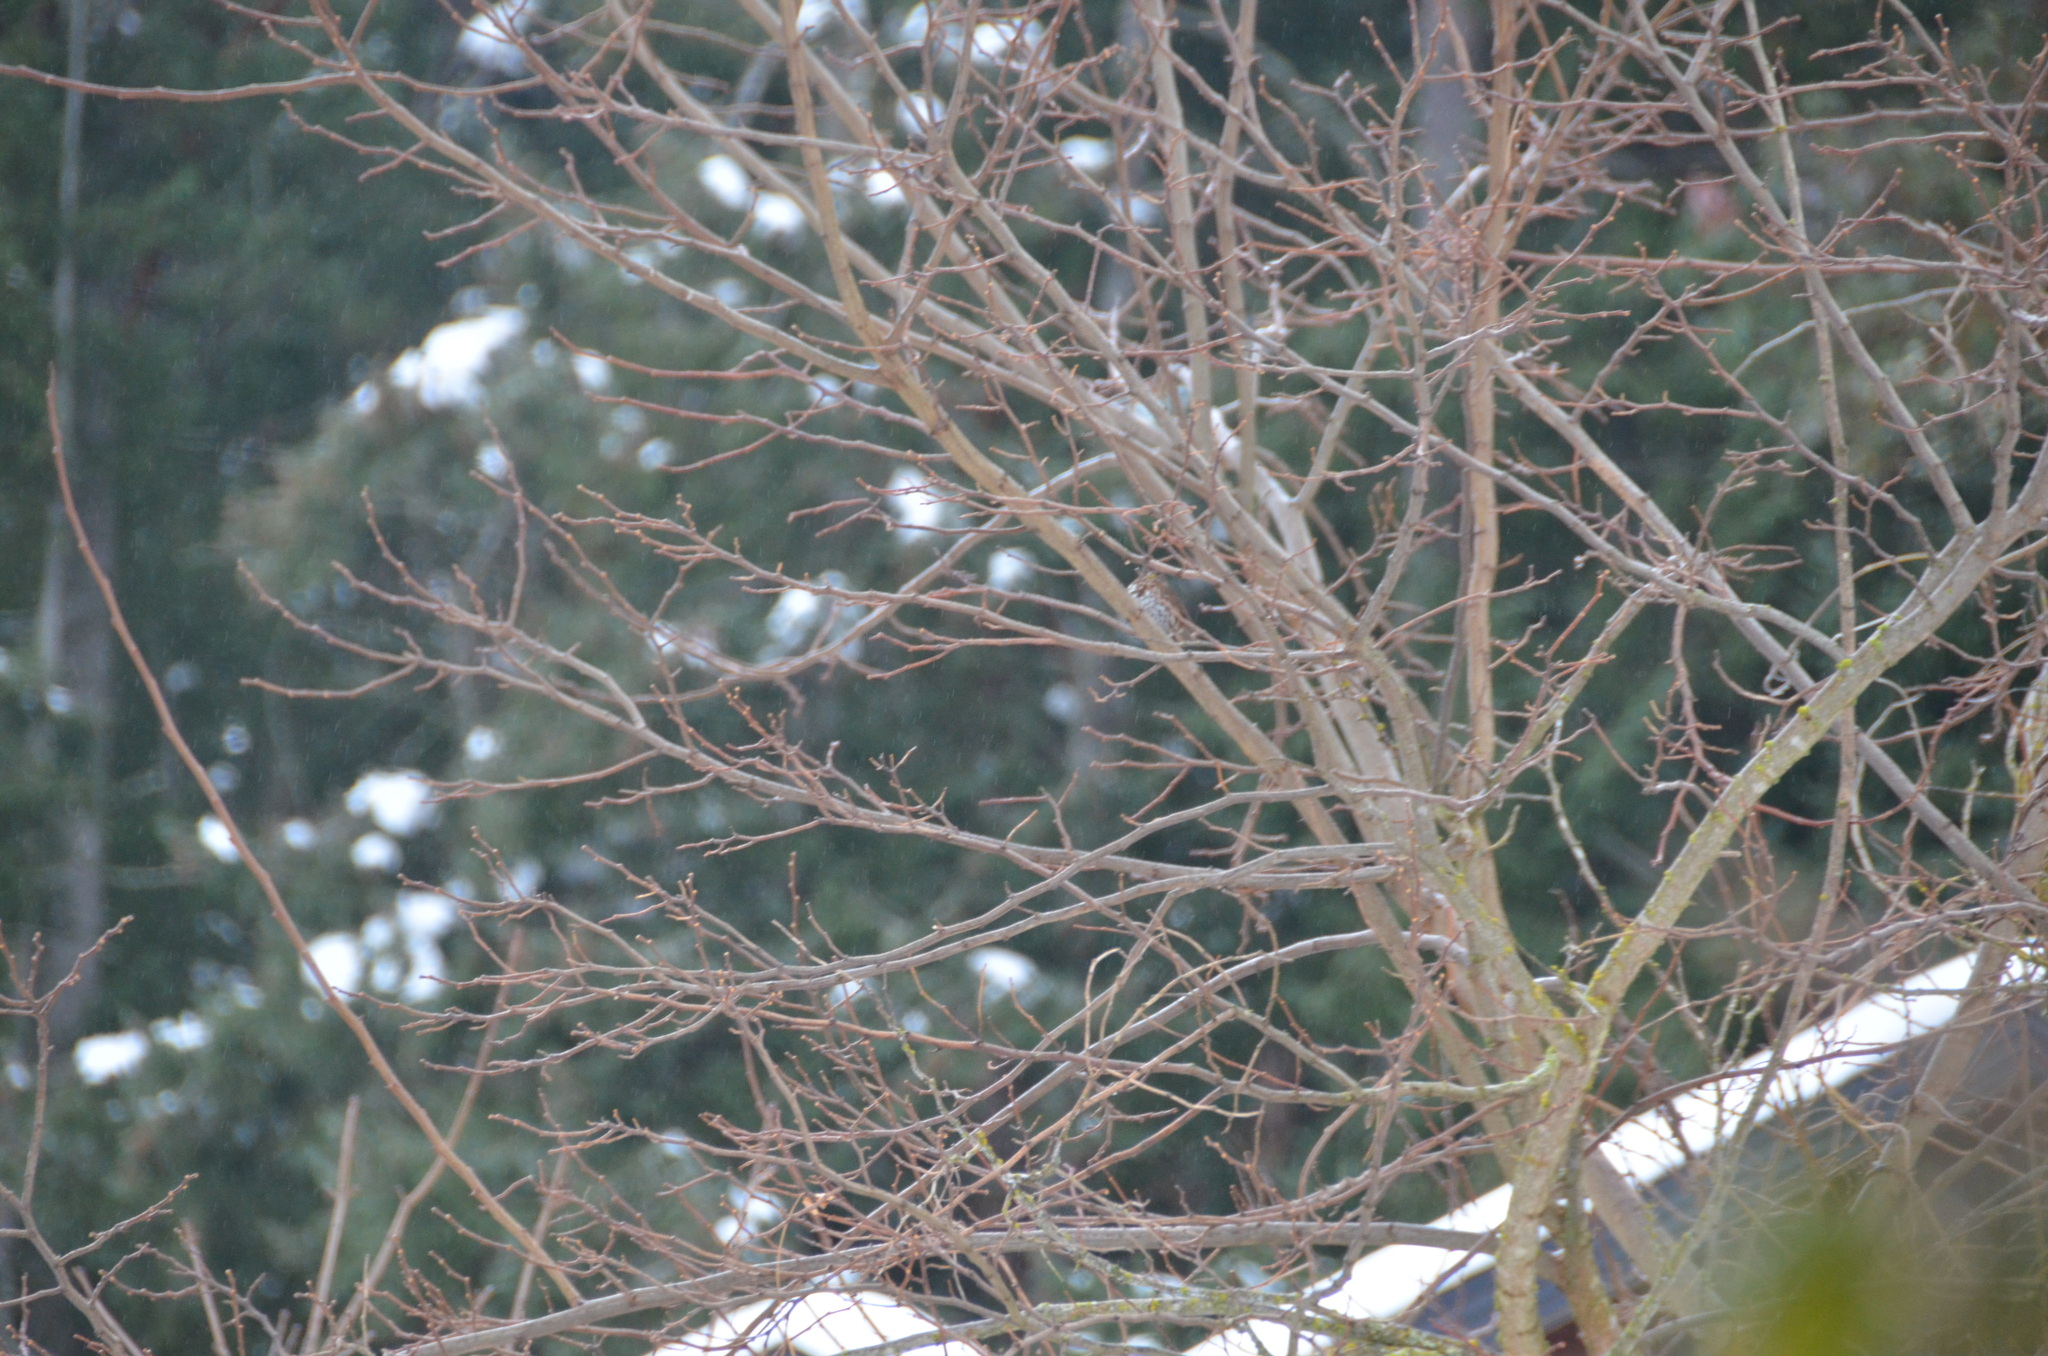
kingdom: Animalia
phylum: Chordata
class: Aves
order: Passeriformes
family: Passerellidae
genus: Passerella
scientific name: Passerella iliaca
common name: Fox sparrow
